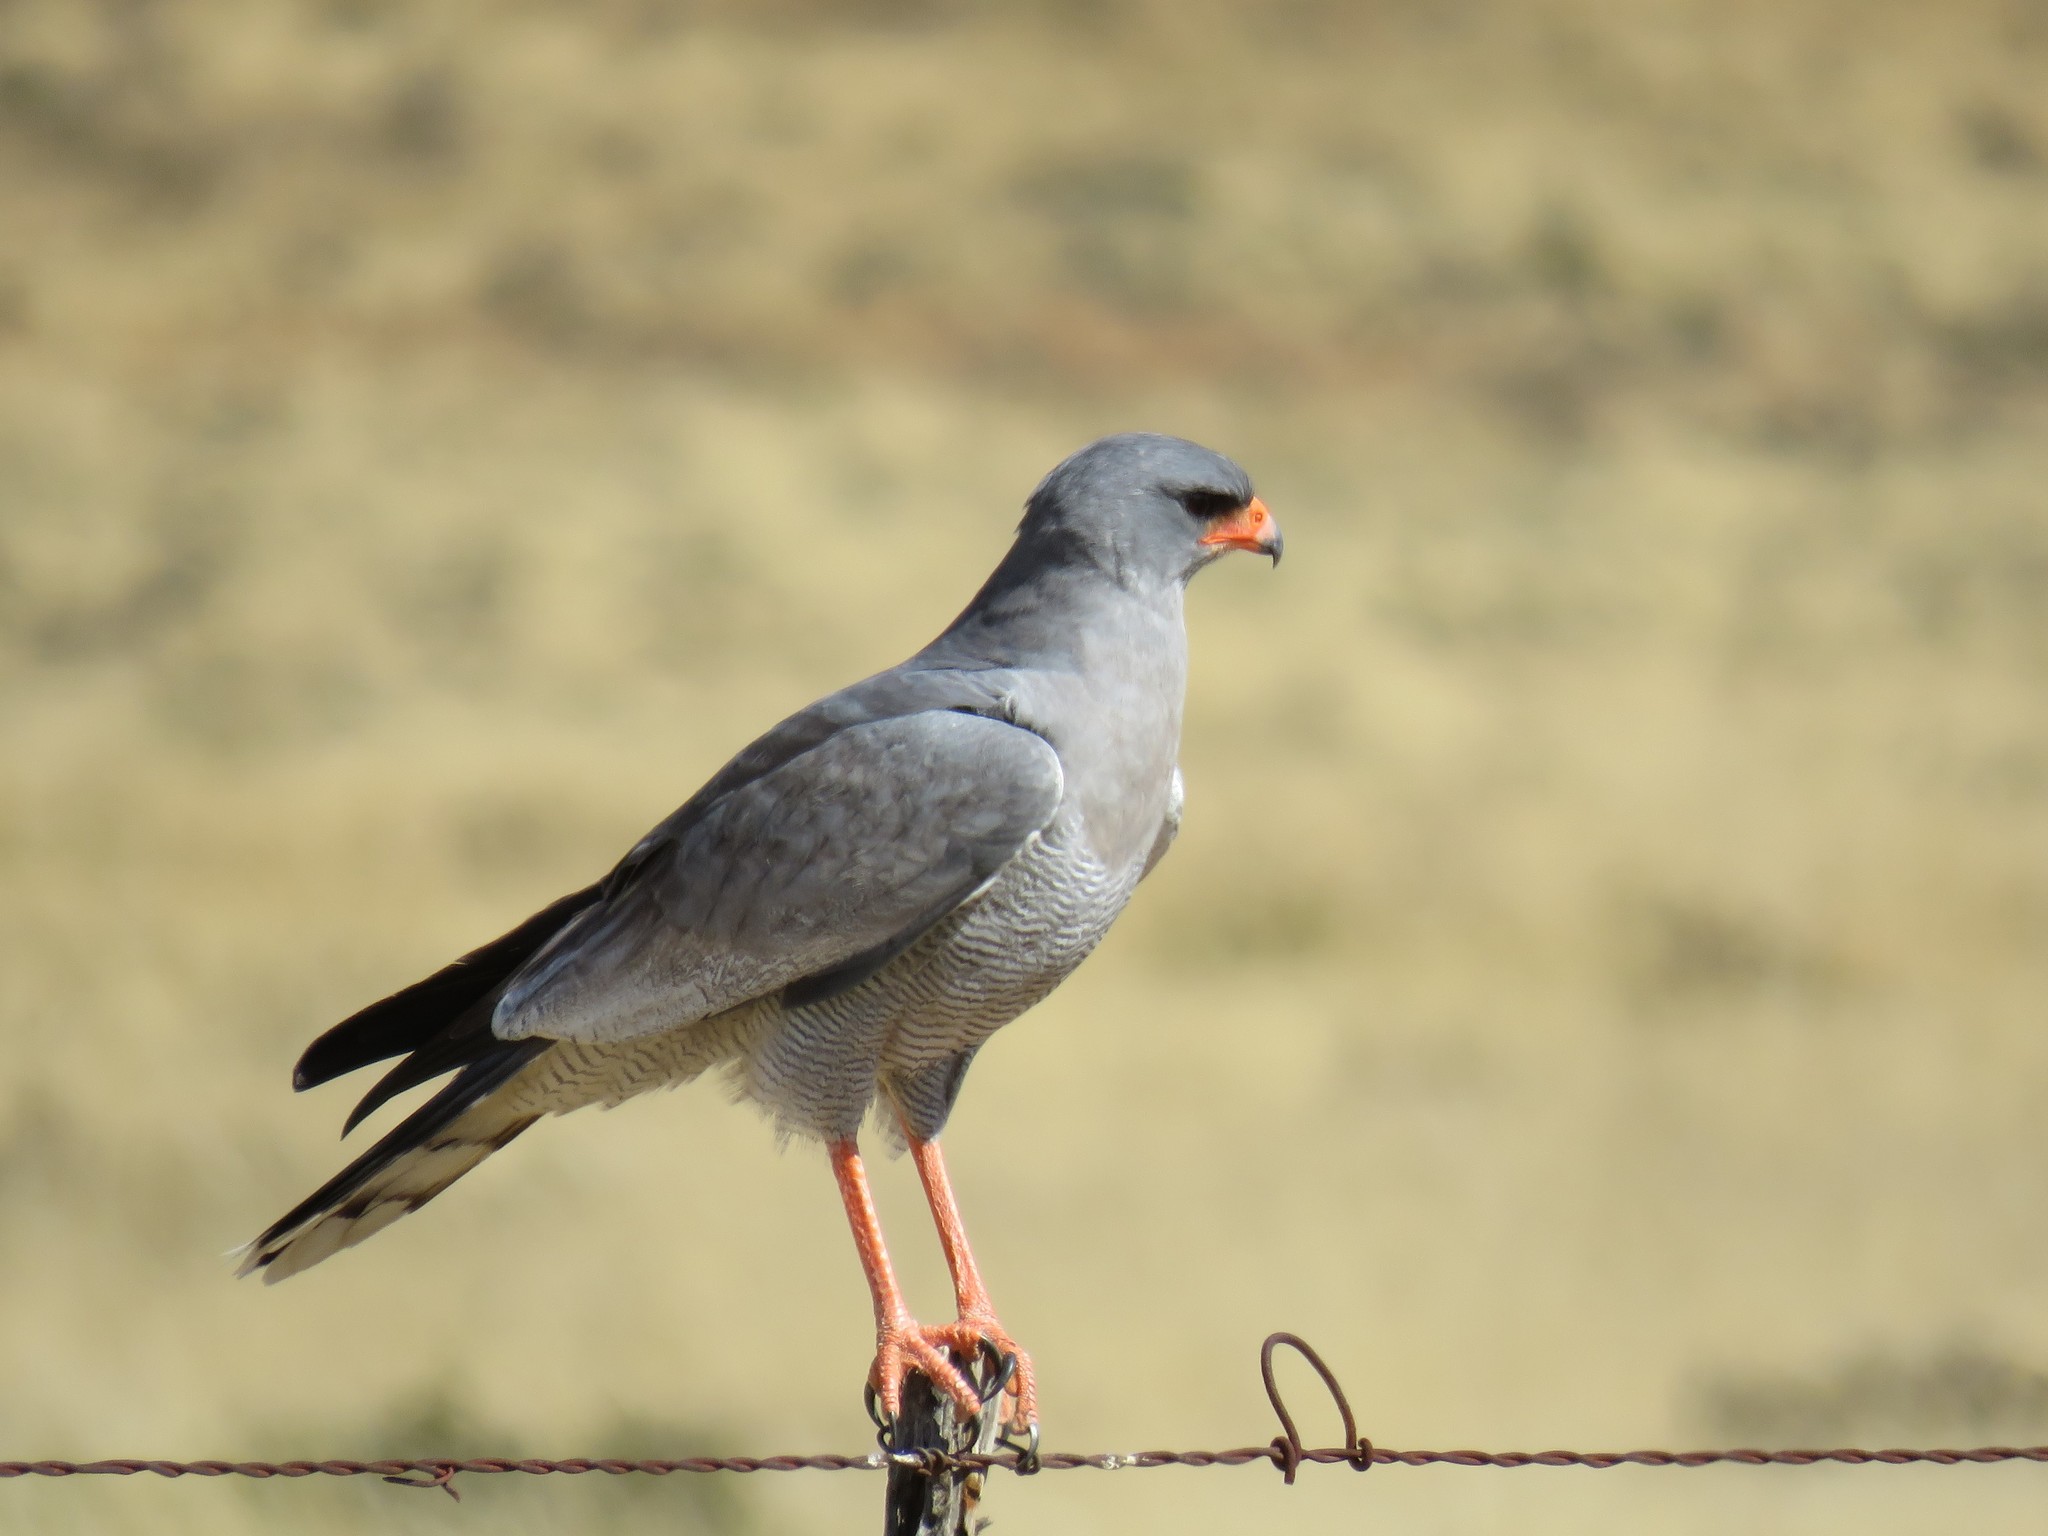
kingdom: Animalia
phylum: Chordata
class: Aves
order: Accipitriformes
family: Accipitridae
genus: Melierax
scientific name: Melierax canorus
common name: Pale chanting-goshawk
